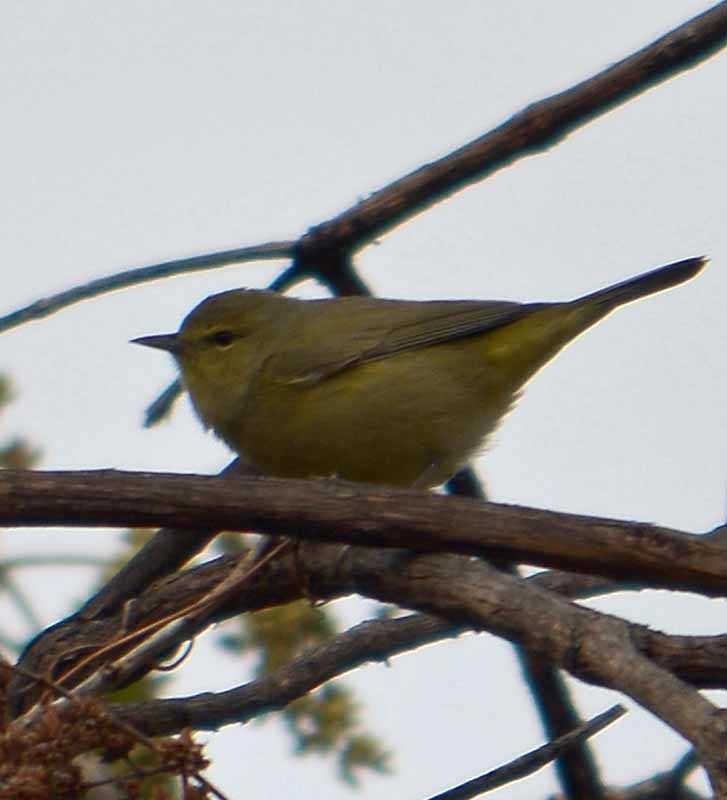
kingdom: Animalia
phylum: Chordata
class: Aves
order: Passeriformes
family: Parulidae
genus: Leiothlypis
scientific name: Leiothlypis celata
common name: Orange-crowned warbler
